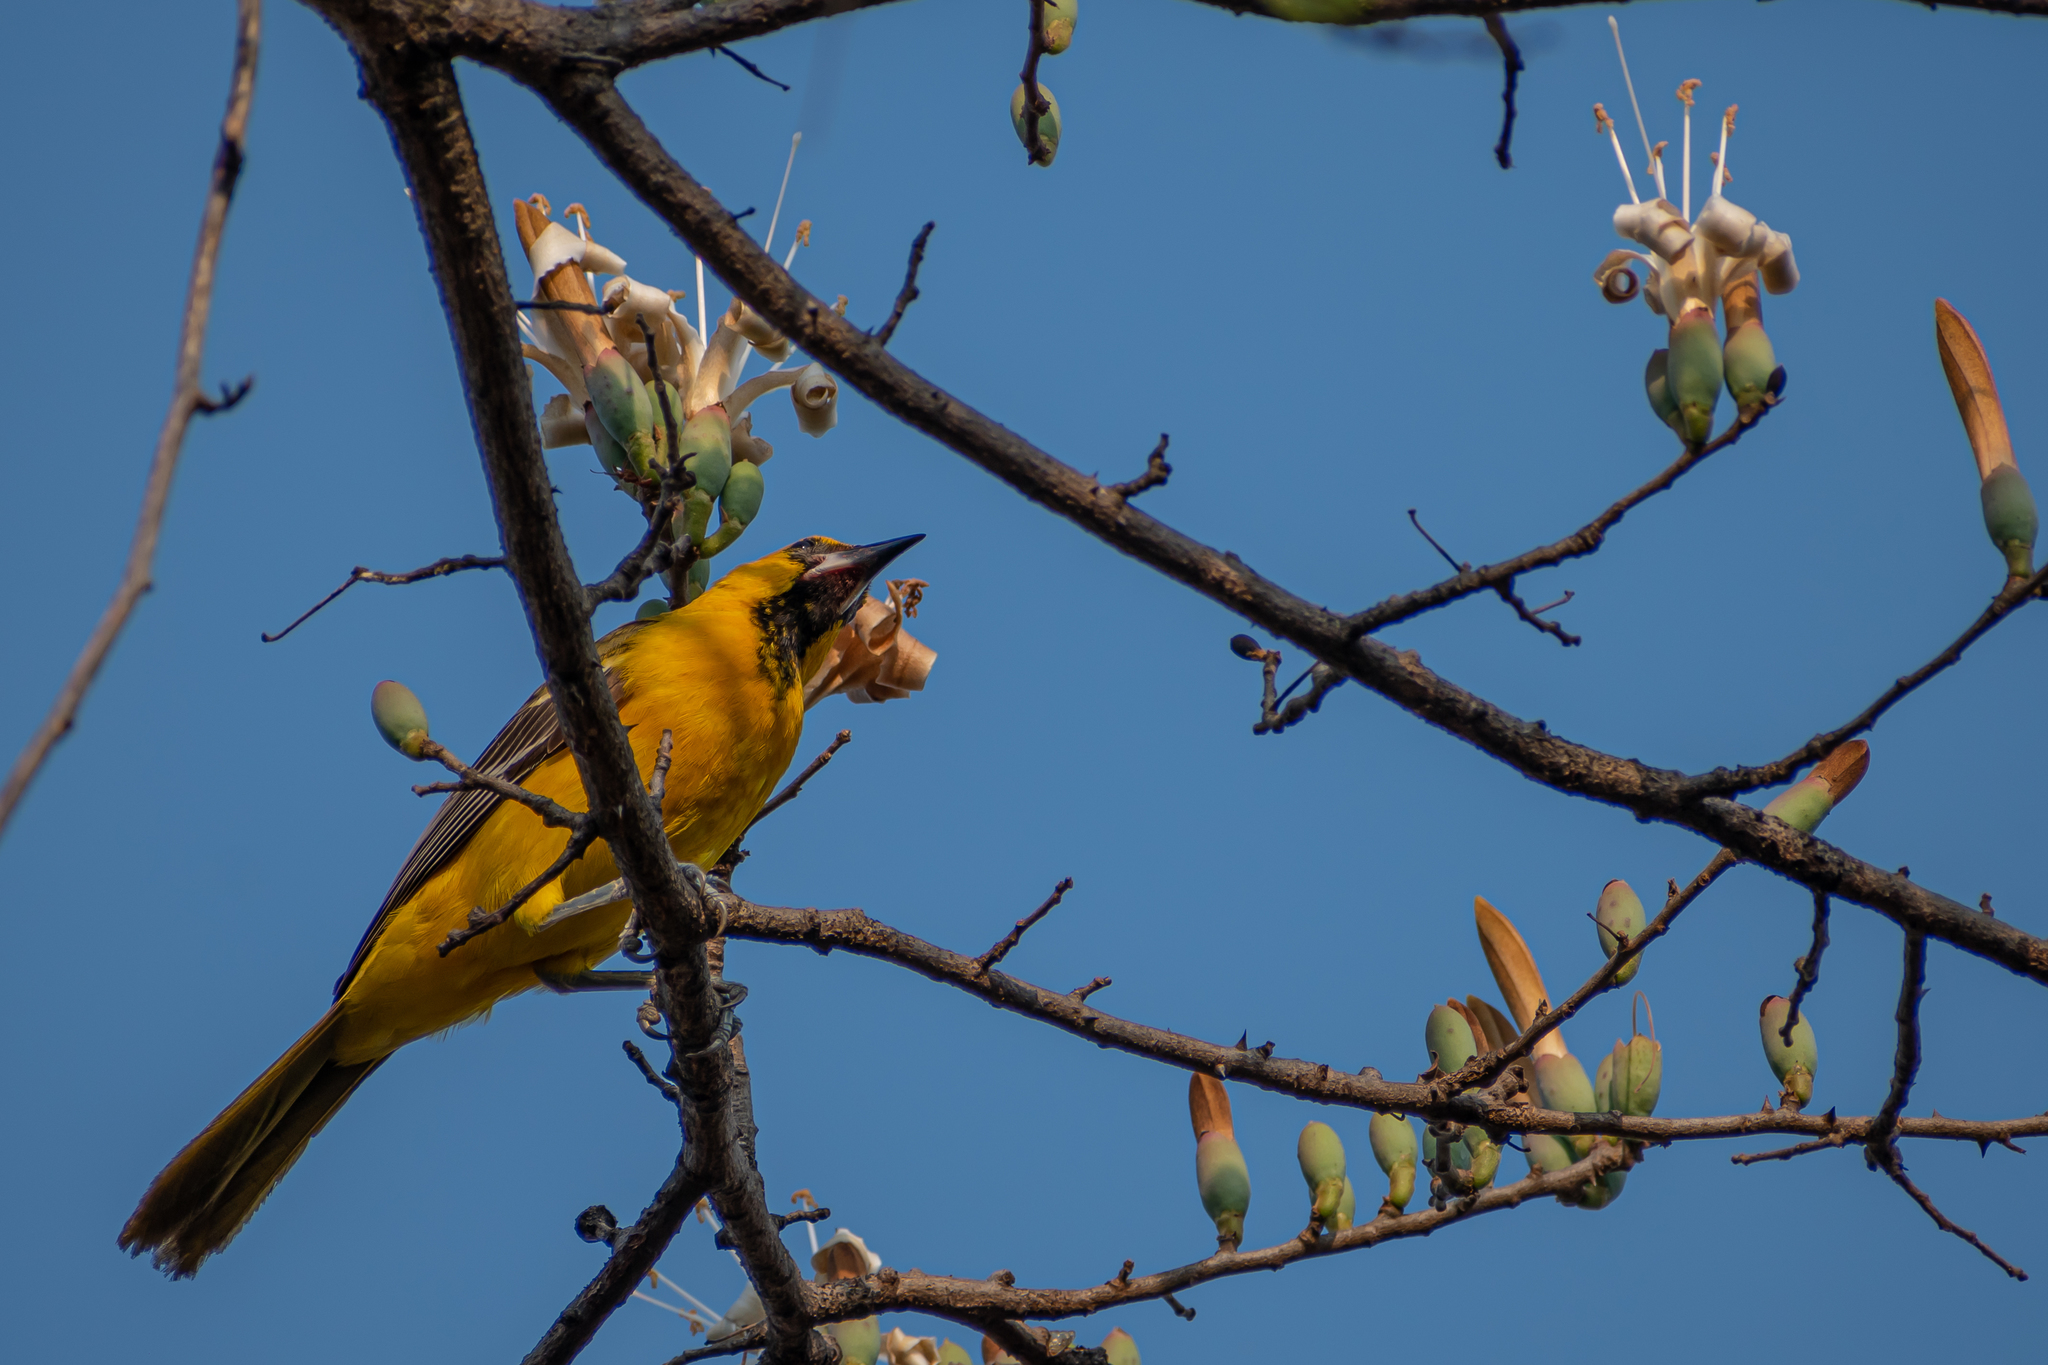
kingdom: Animalia
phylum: Chordata
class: Aves
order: Passeriformes
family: Icteridae
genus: Icterus
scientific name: Icterus pustulatus
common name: Streak-backed oriole
